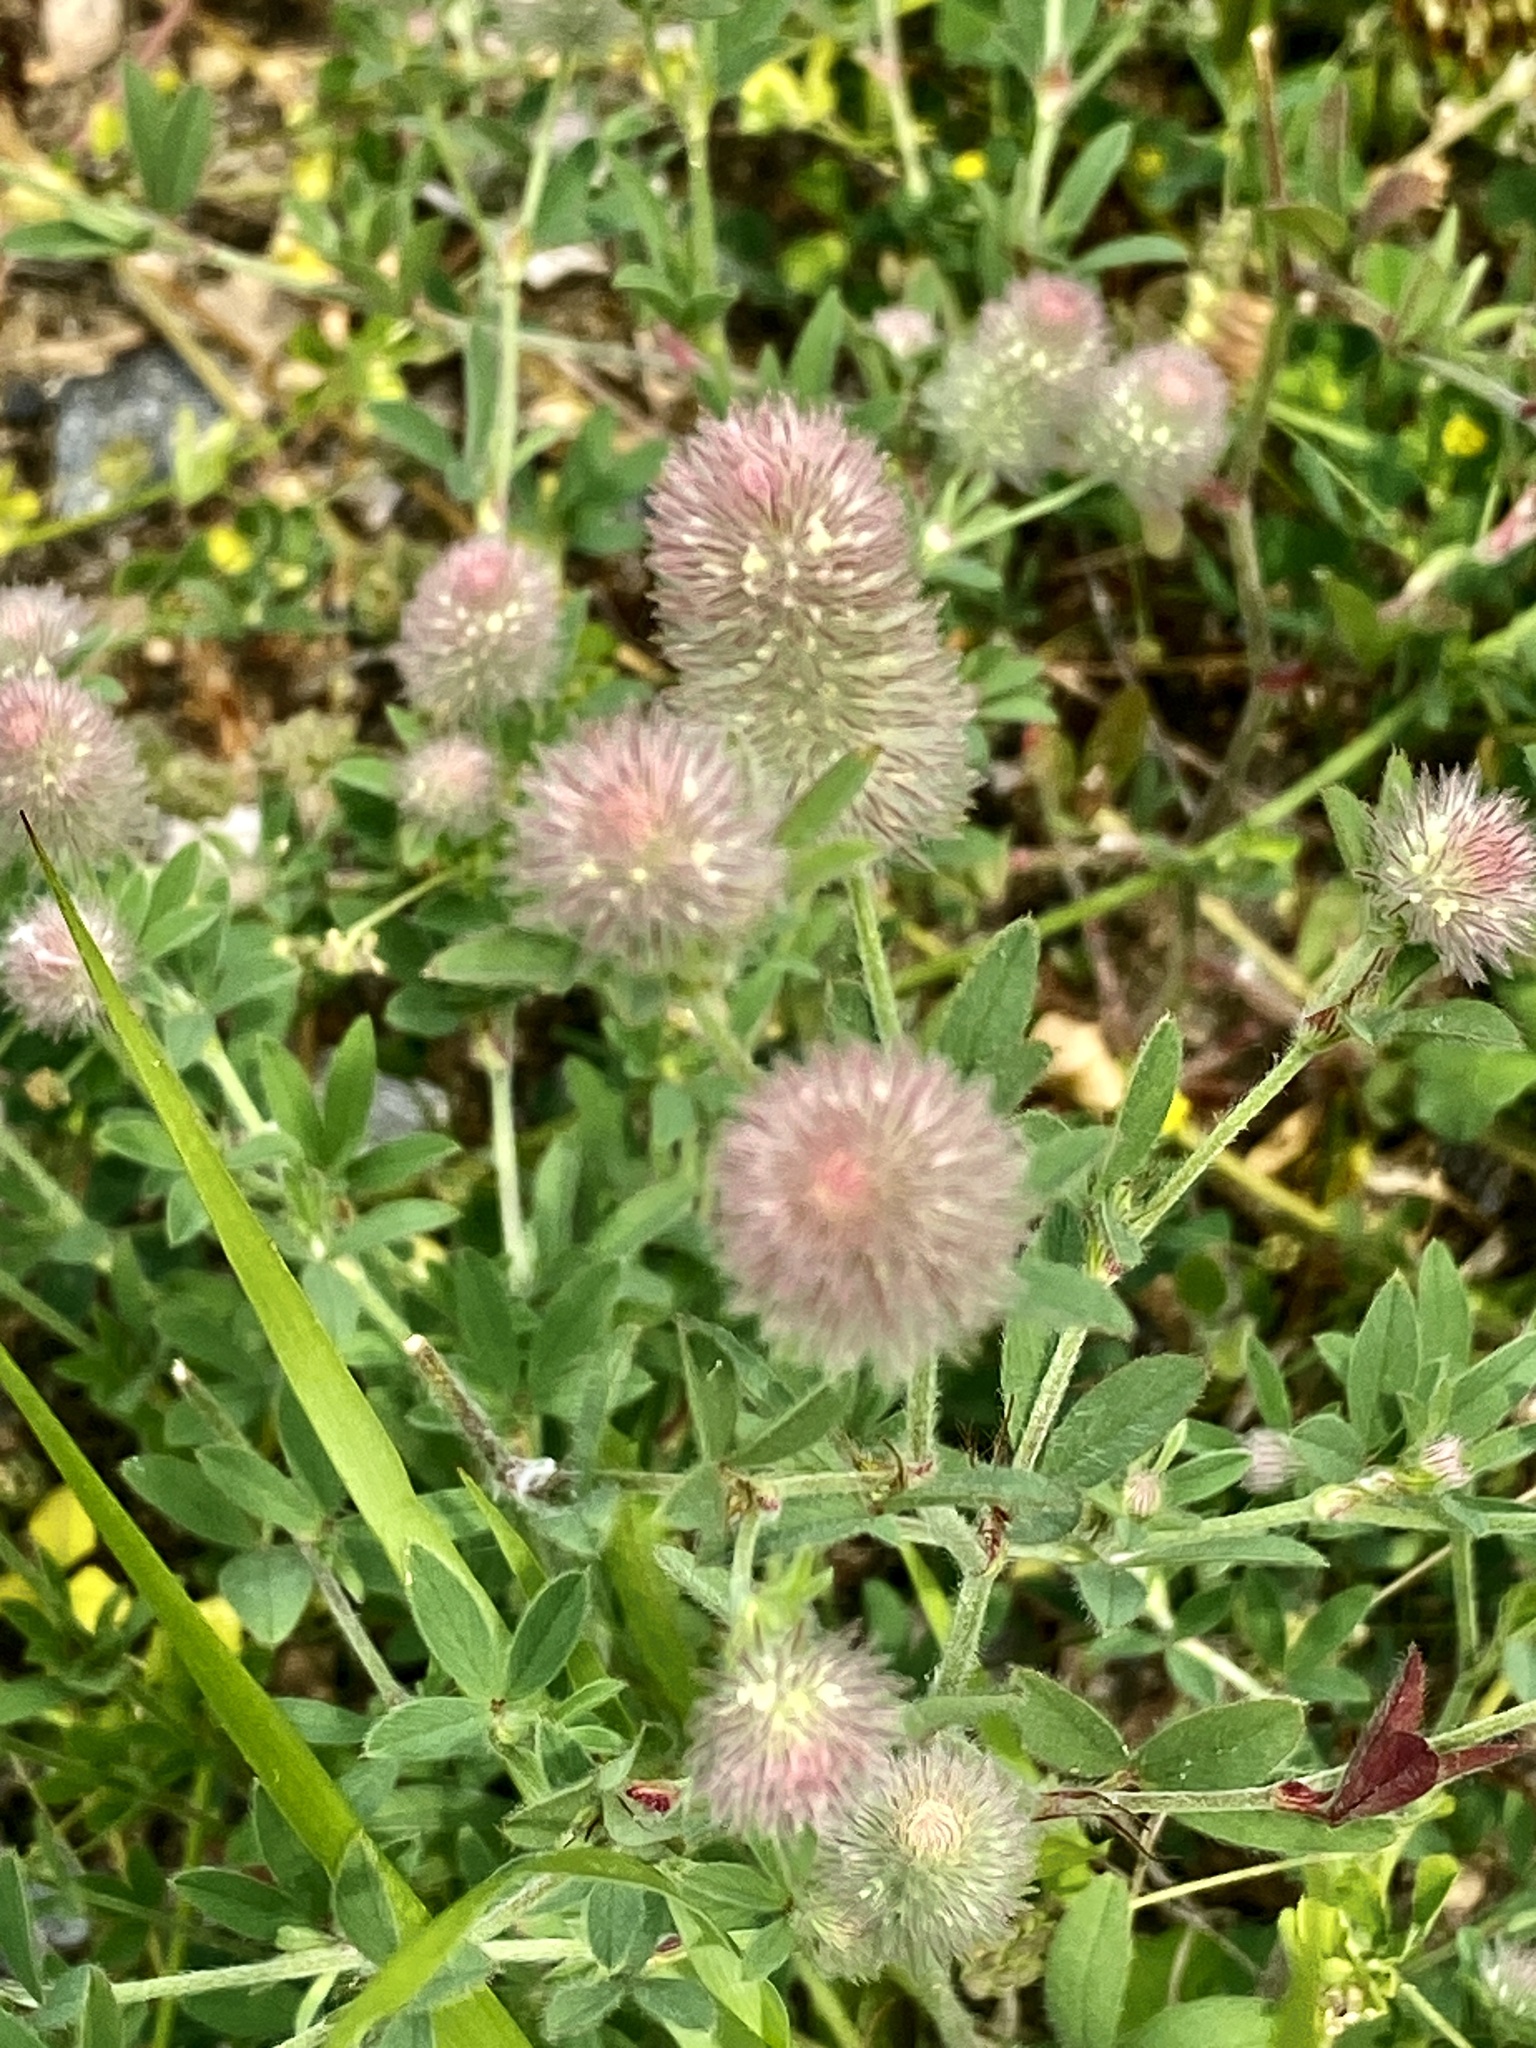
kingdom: Plantae
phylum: Tracheophyta
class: Magnoliopsida
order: Fabales
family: Fabaceae
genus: Trifolium
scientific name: Trifolium arvense
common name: Hare's-foot clover
